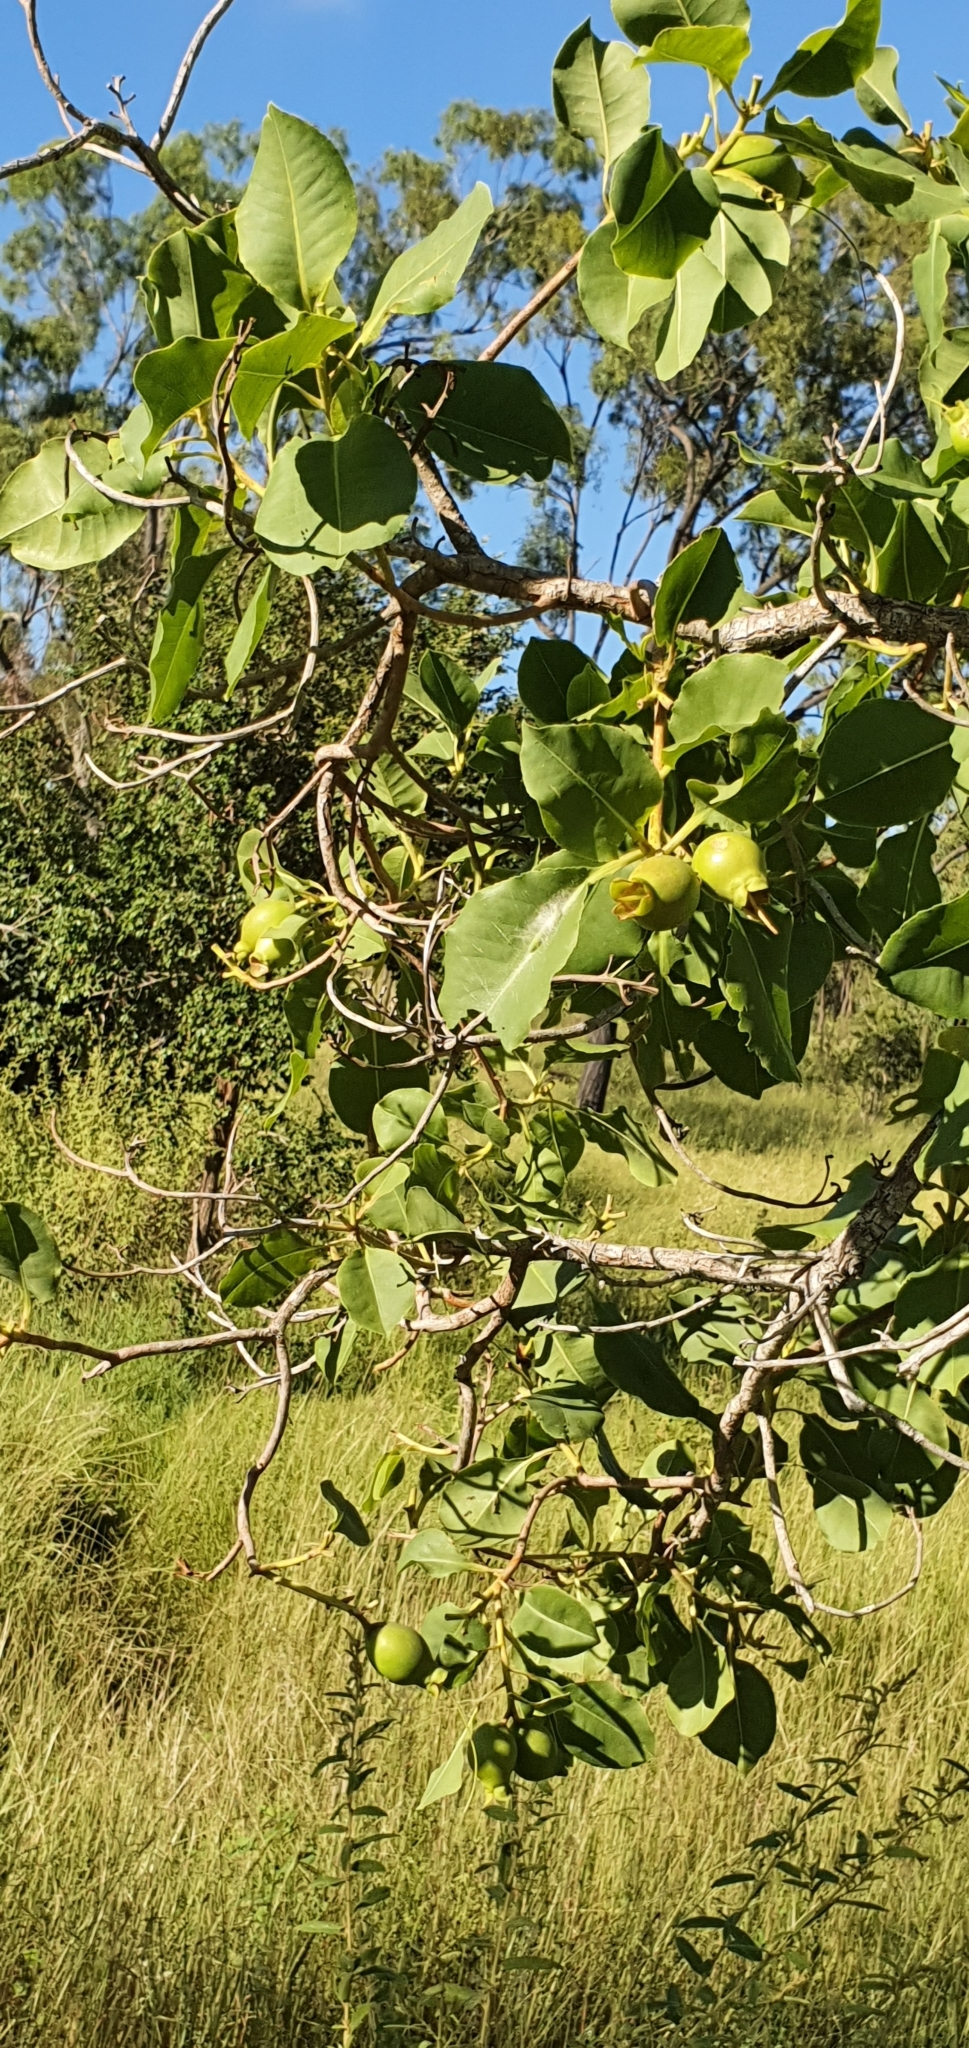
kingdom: Plantae
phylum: Tracheophyta
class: Magnoliopsida
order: Ericales
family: Lecythidaceae
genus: Planchonia
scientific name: Planchonia careya
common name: Cockatoo-apple
